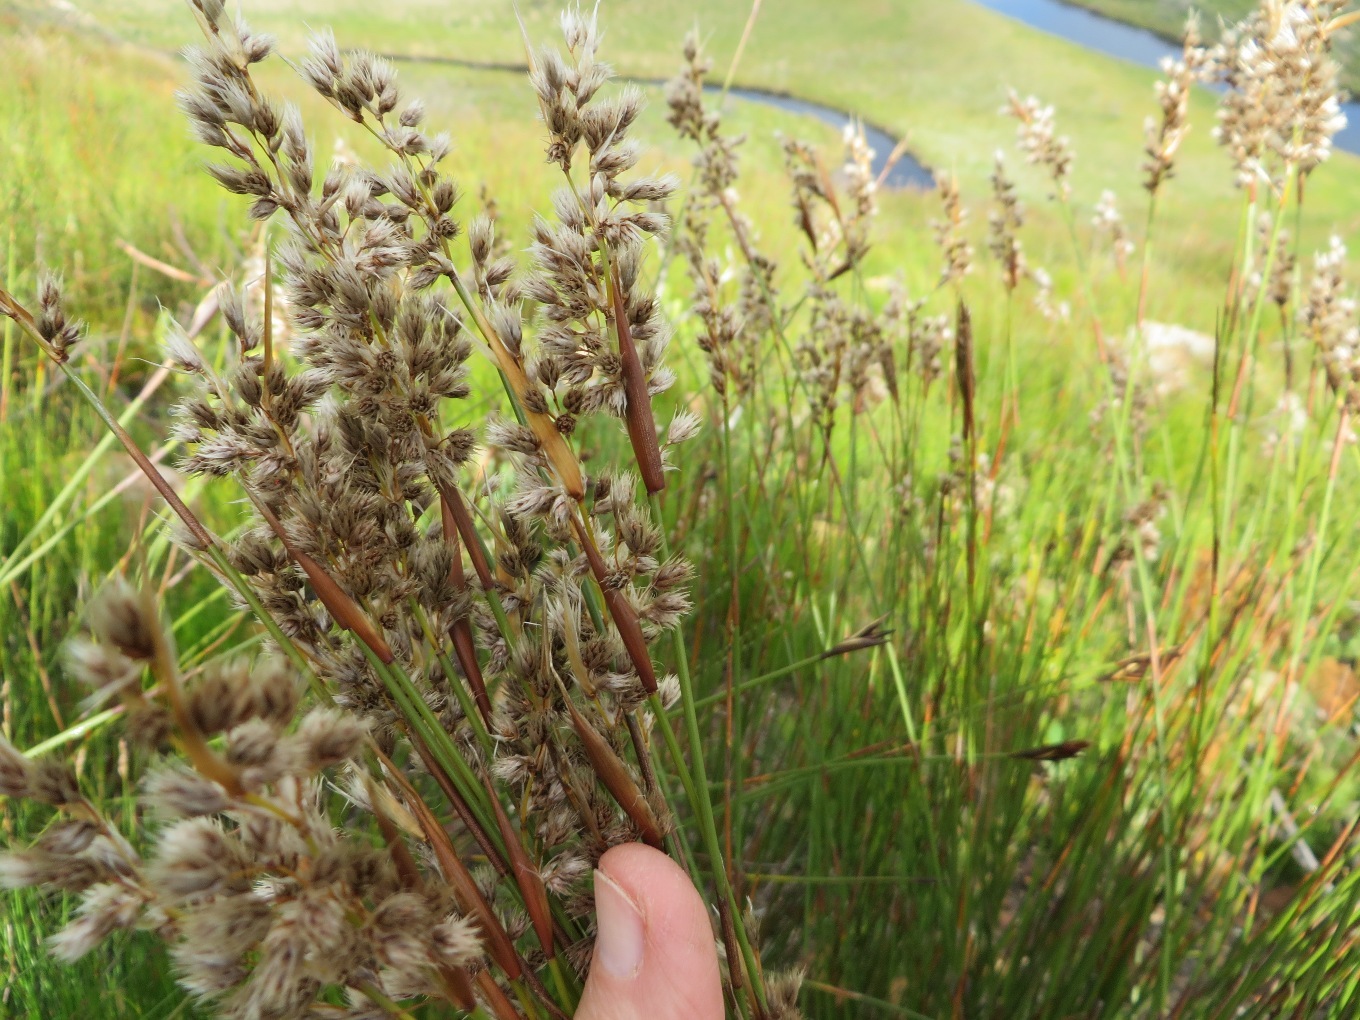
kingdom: Plantae
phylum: Tracheophyta
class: Liliopsida
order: Poales
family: Restionaceae
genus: Hypodiscus
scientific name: Hypodiscus argenteus
